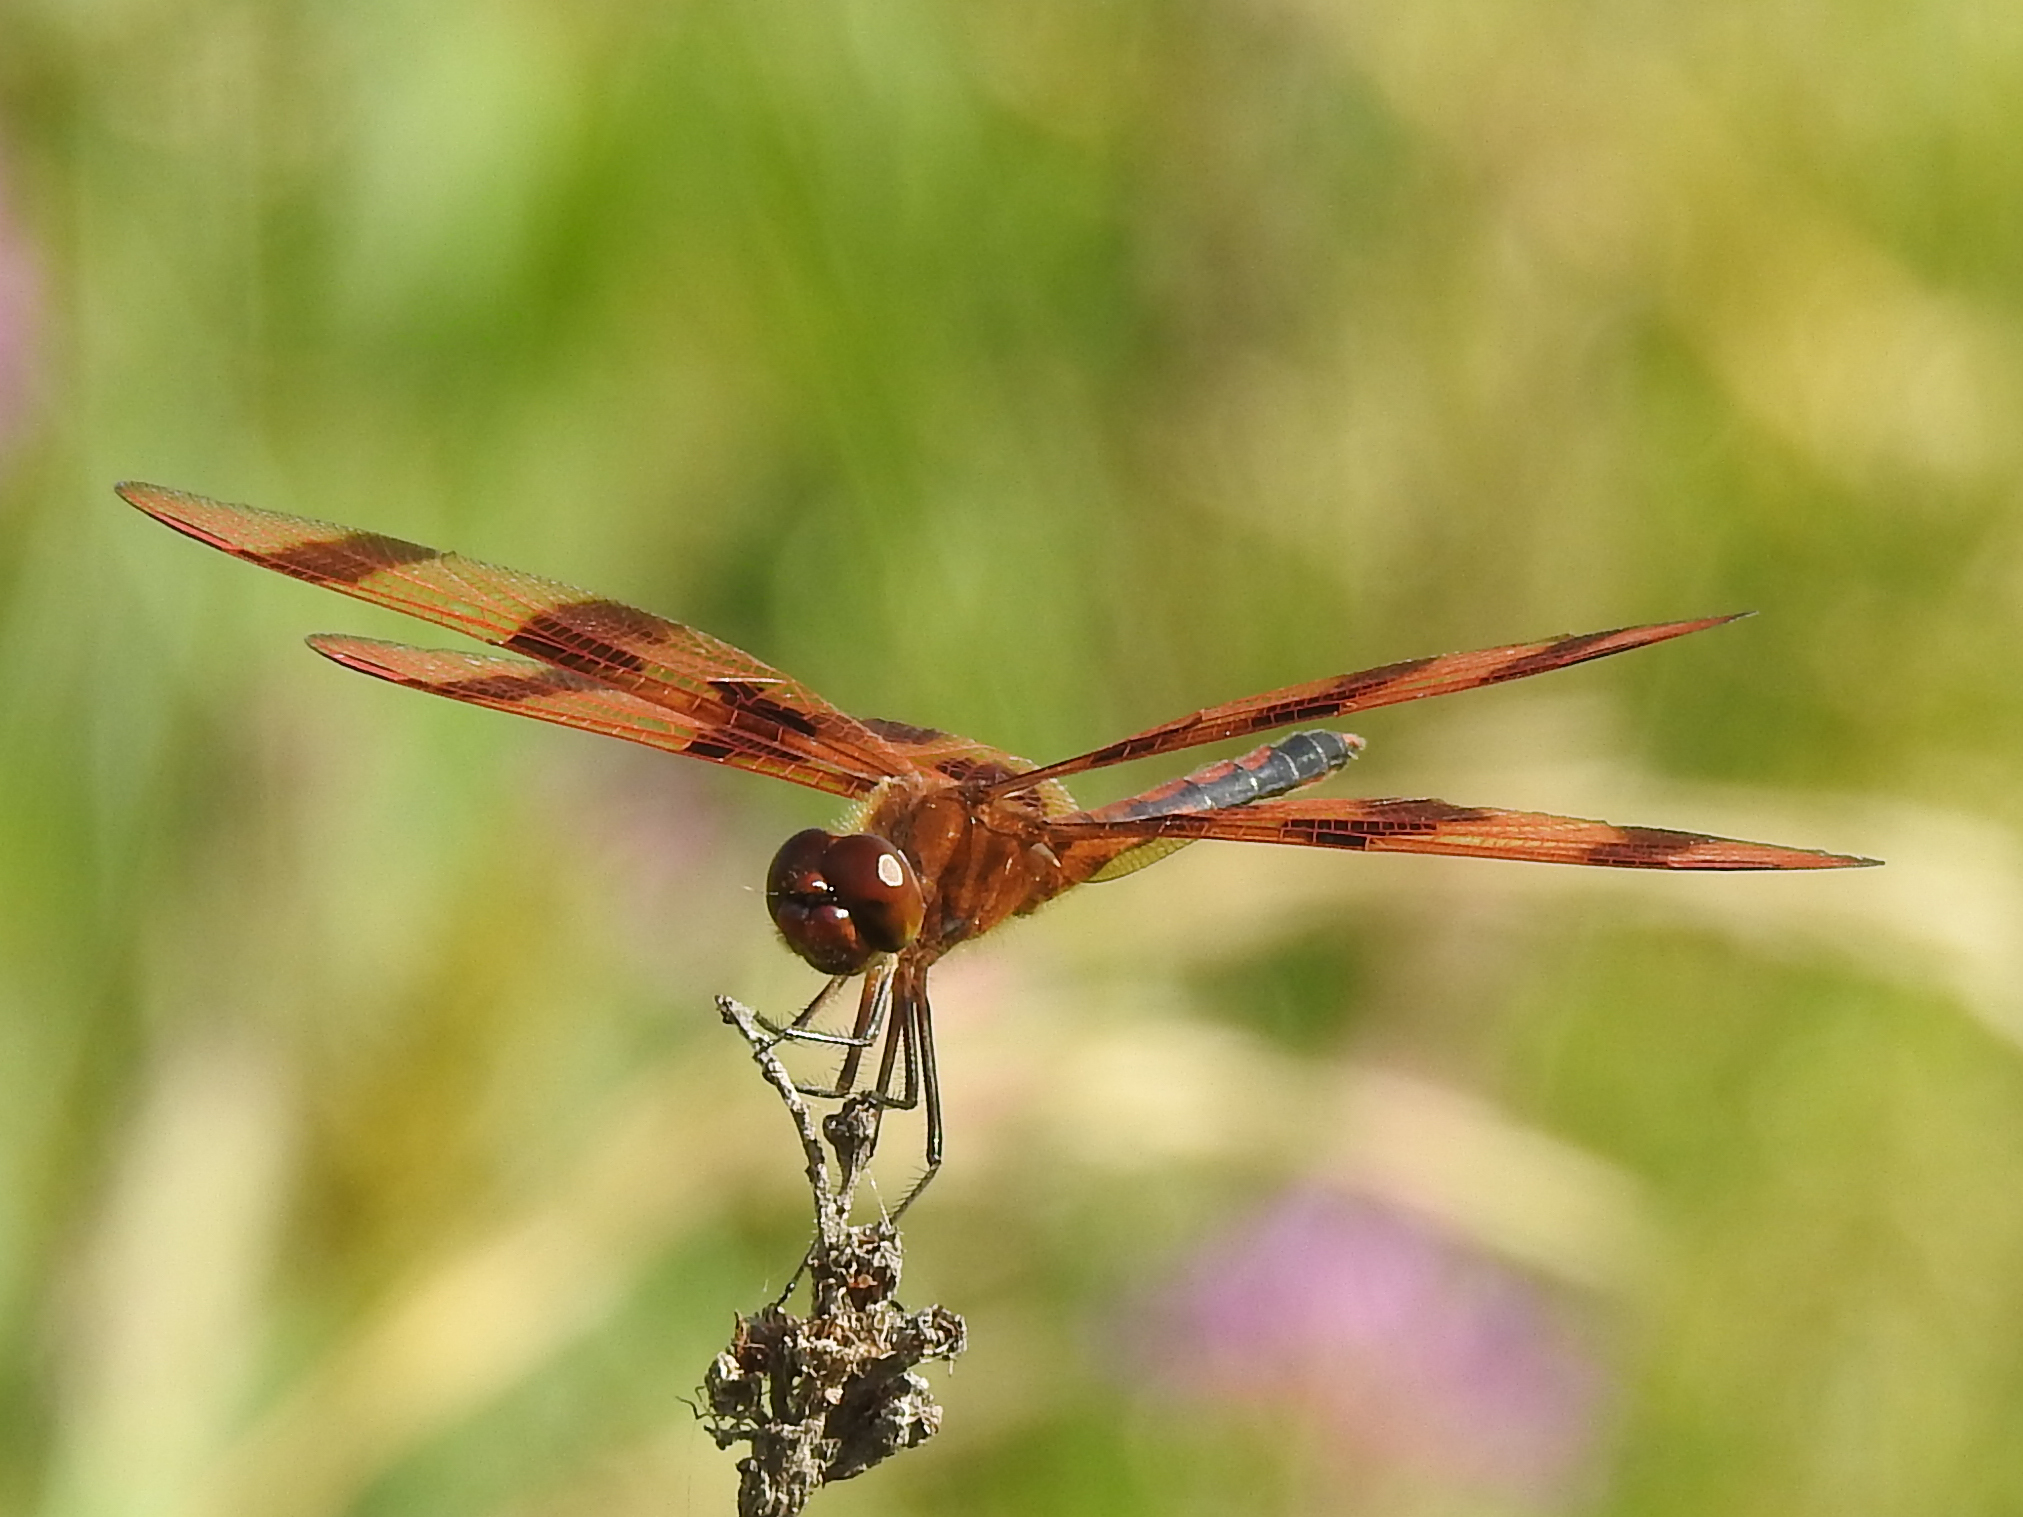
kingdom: Animalia
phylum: Arthropoda
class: Insecta
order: Odonata
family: Libellulidae
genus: Celithemis
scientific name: Celithemis eponina
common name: Halloween pennant
